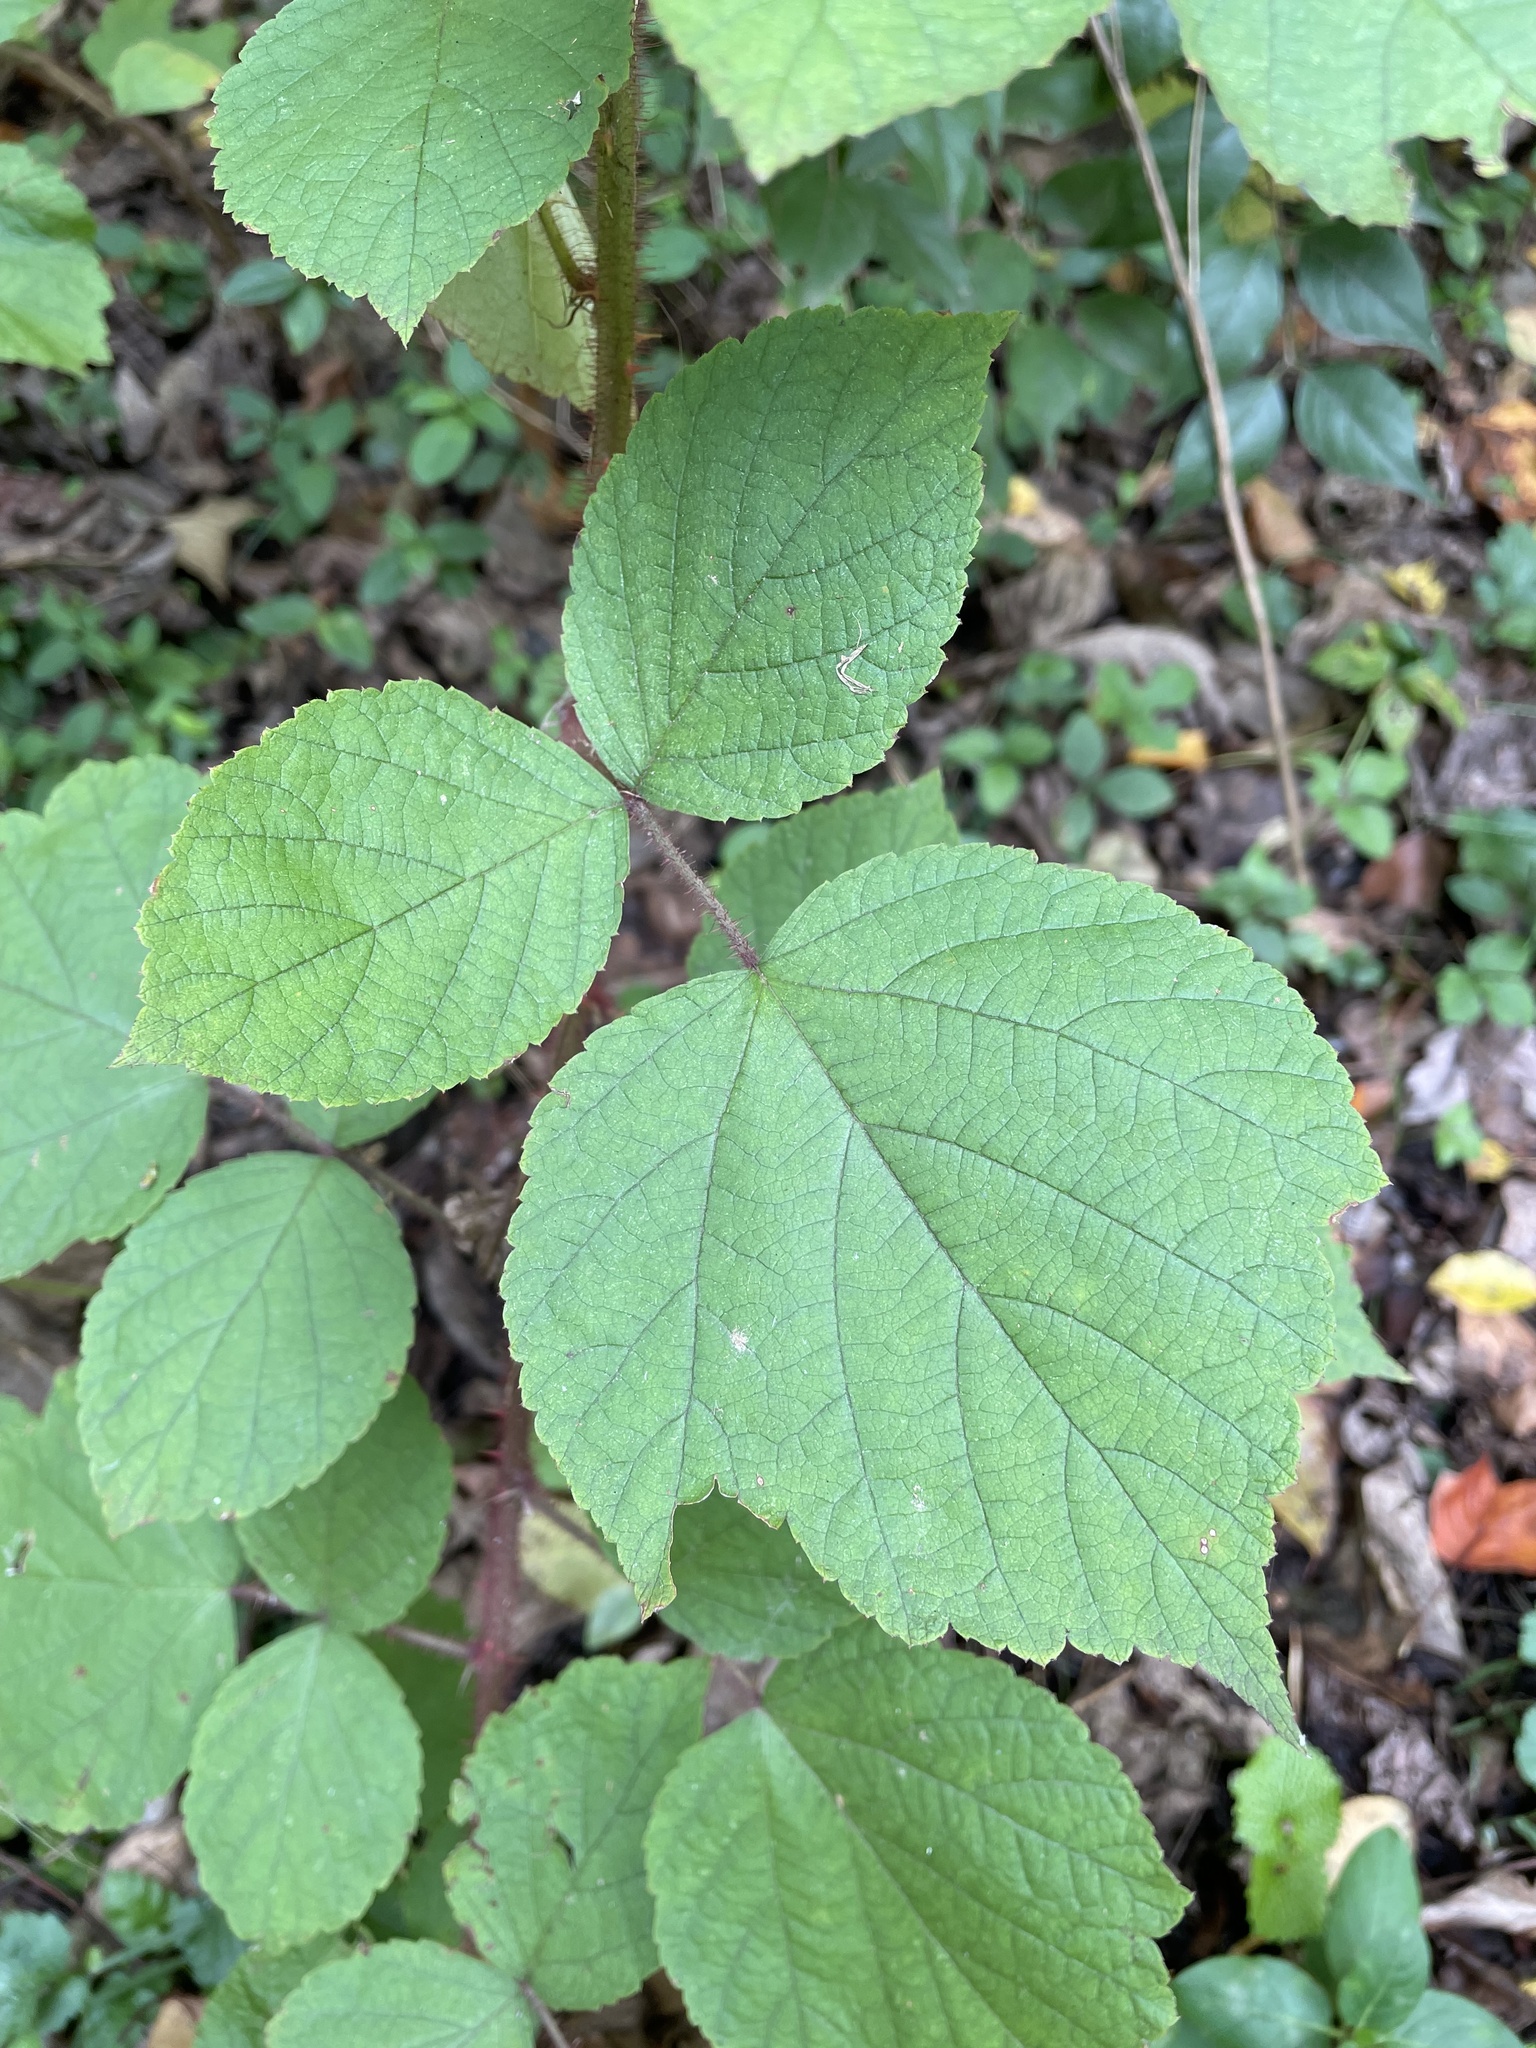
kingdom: Plantae
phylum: Tracheophyta
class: Magnoliopsida
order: Rosales
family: Rosaceae
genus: Rubus
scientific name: Rubus phoenicolasius
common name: Japanese wineberry
